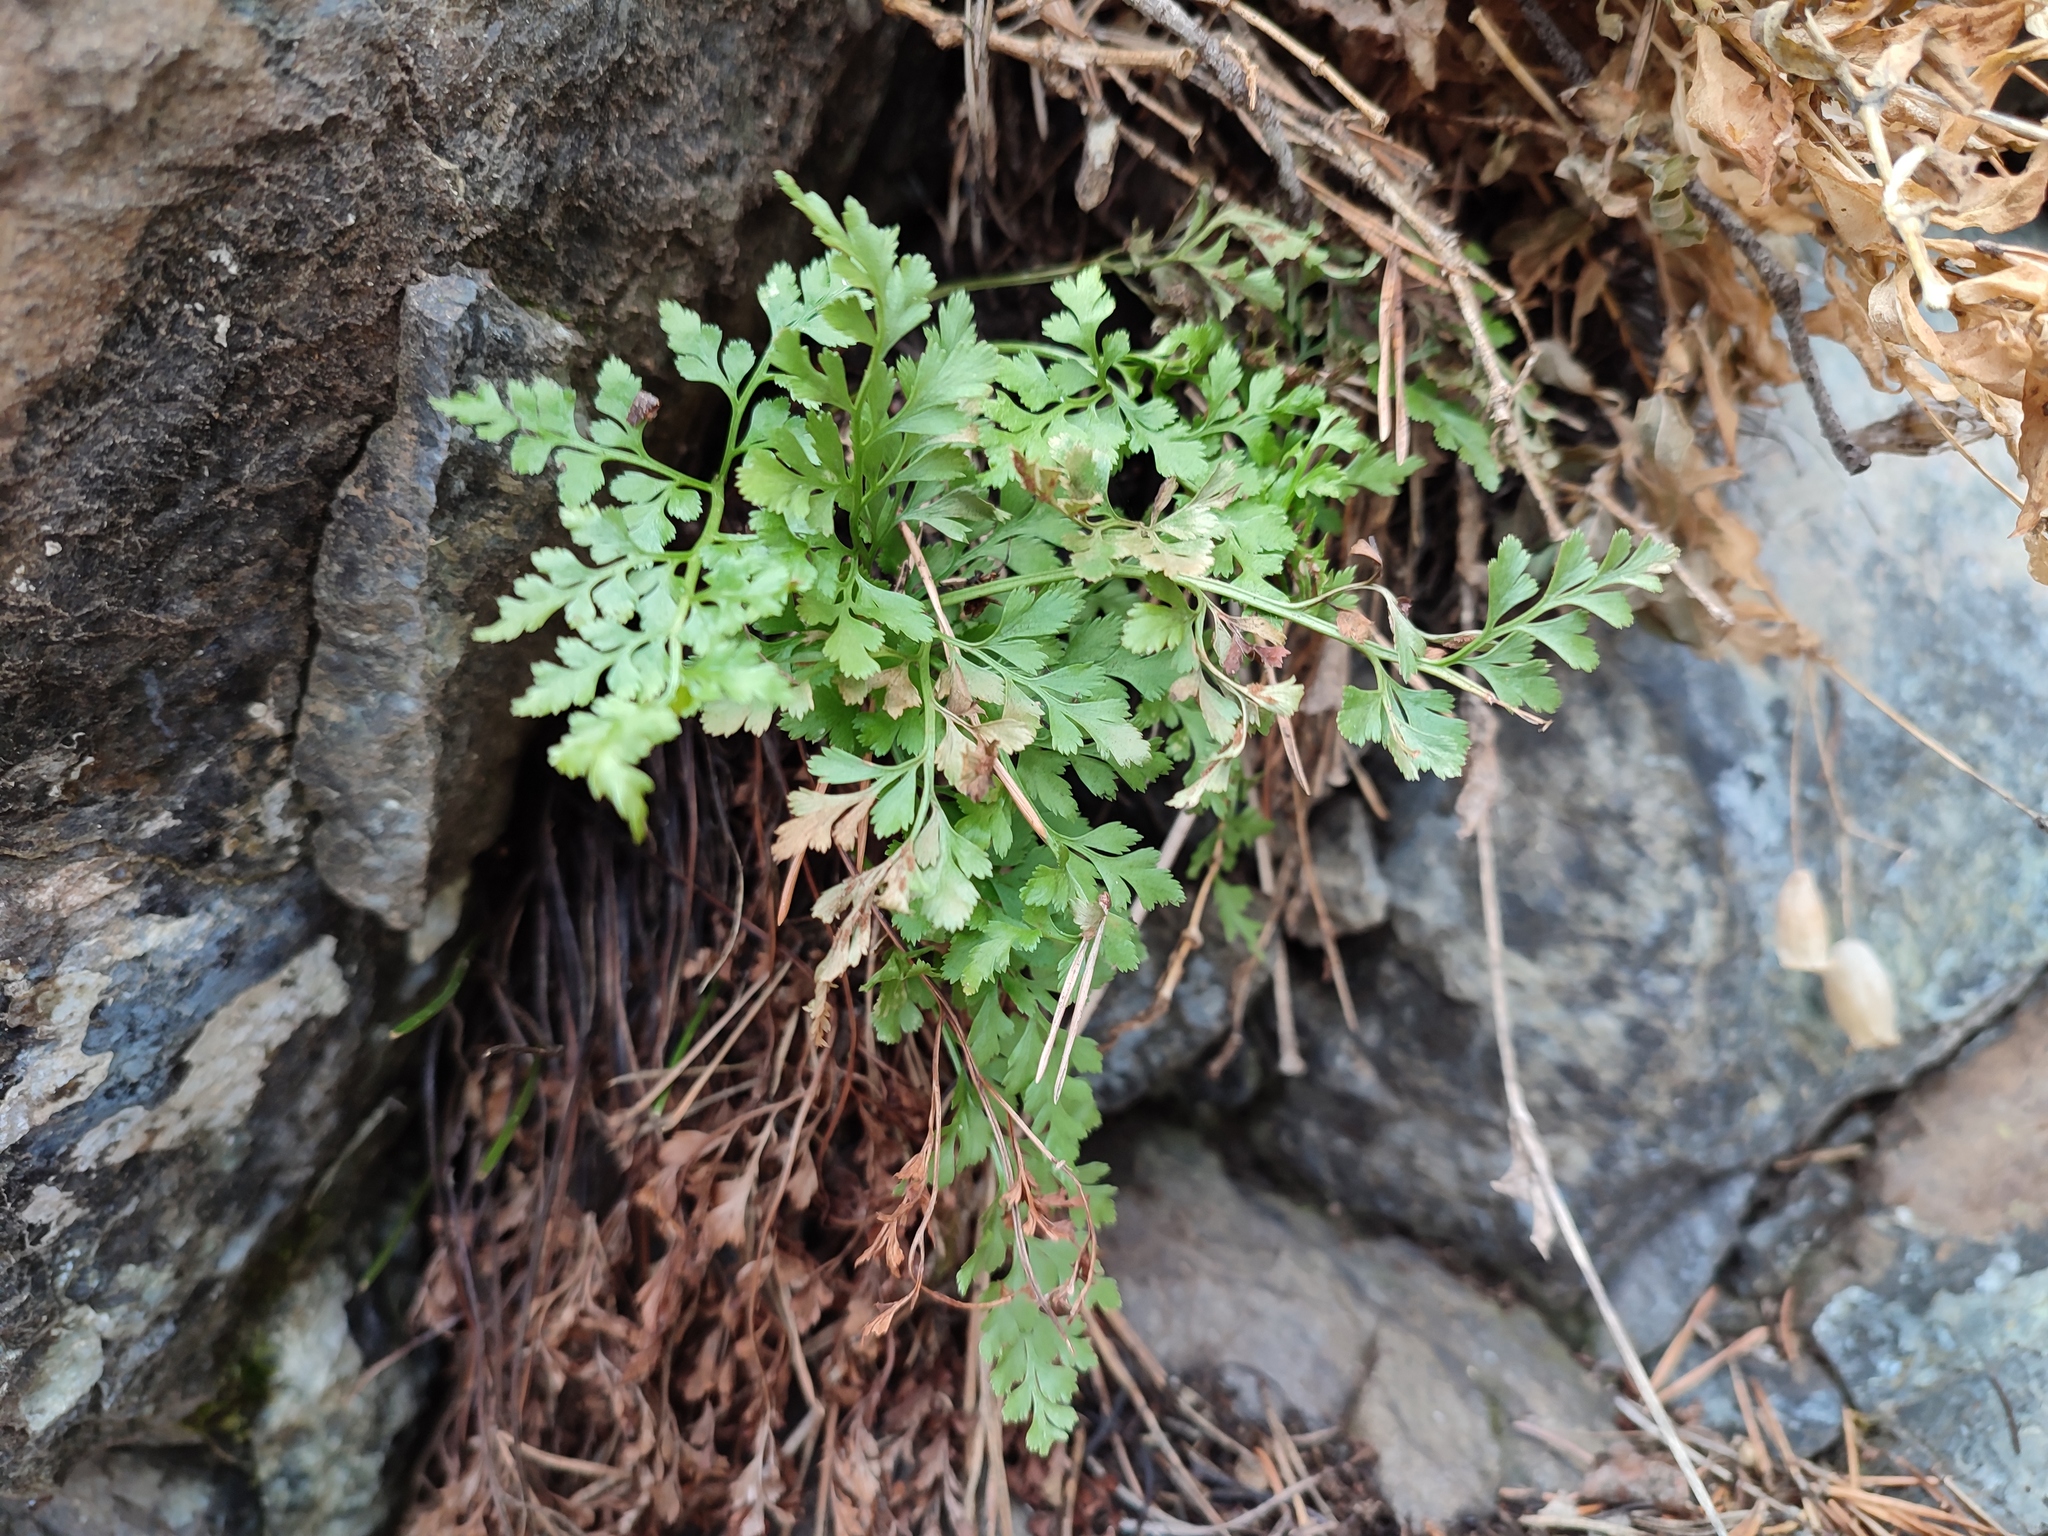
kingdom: Plantae
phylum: Tracheophyta
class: Polypodiopsida
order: Polypodiales
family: Aspleniaceae
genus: Asplenium
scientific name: Asplenium cuneifolium
